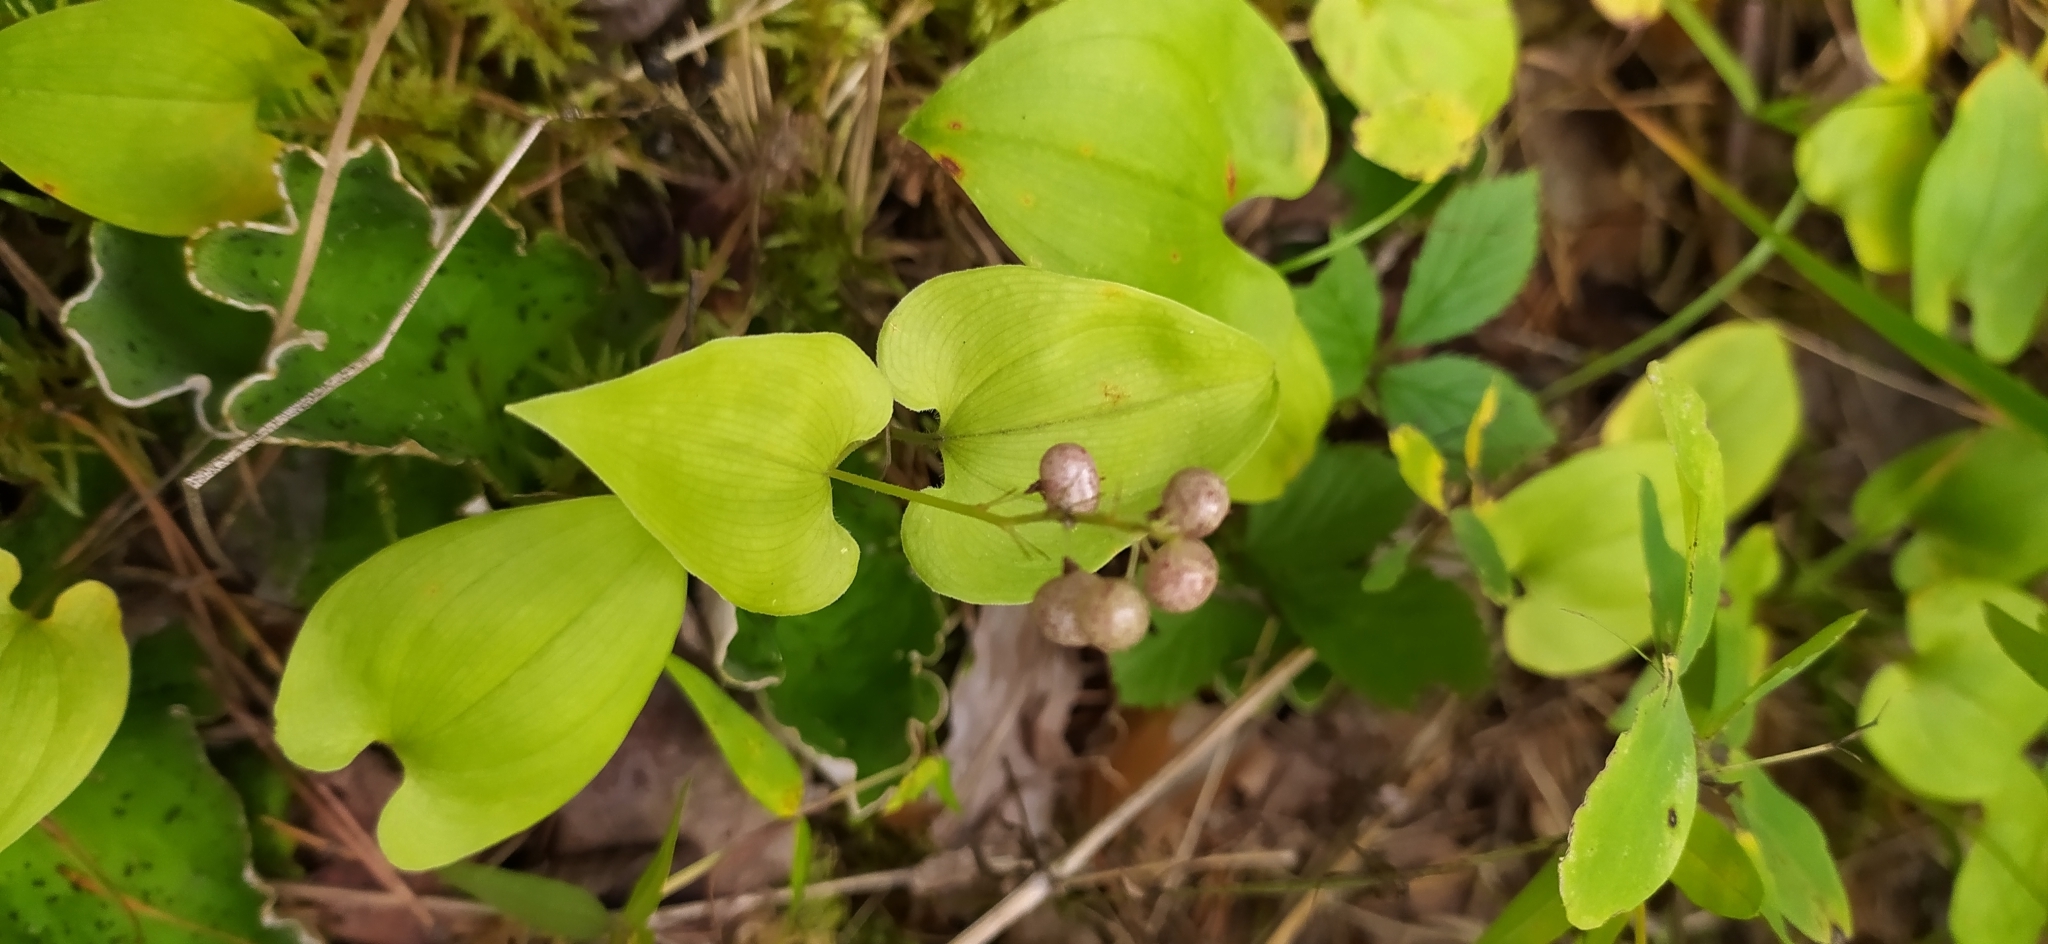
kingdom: Plantae
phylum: Tracheophyta
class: Liliopsida
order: Asparagales
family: Asparagaceae
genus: Maianthemum
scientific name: Maianthemum bifolium
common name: May lily
